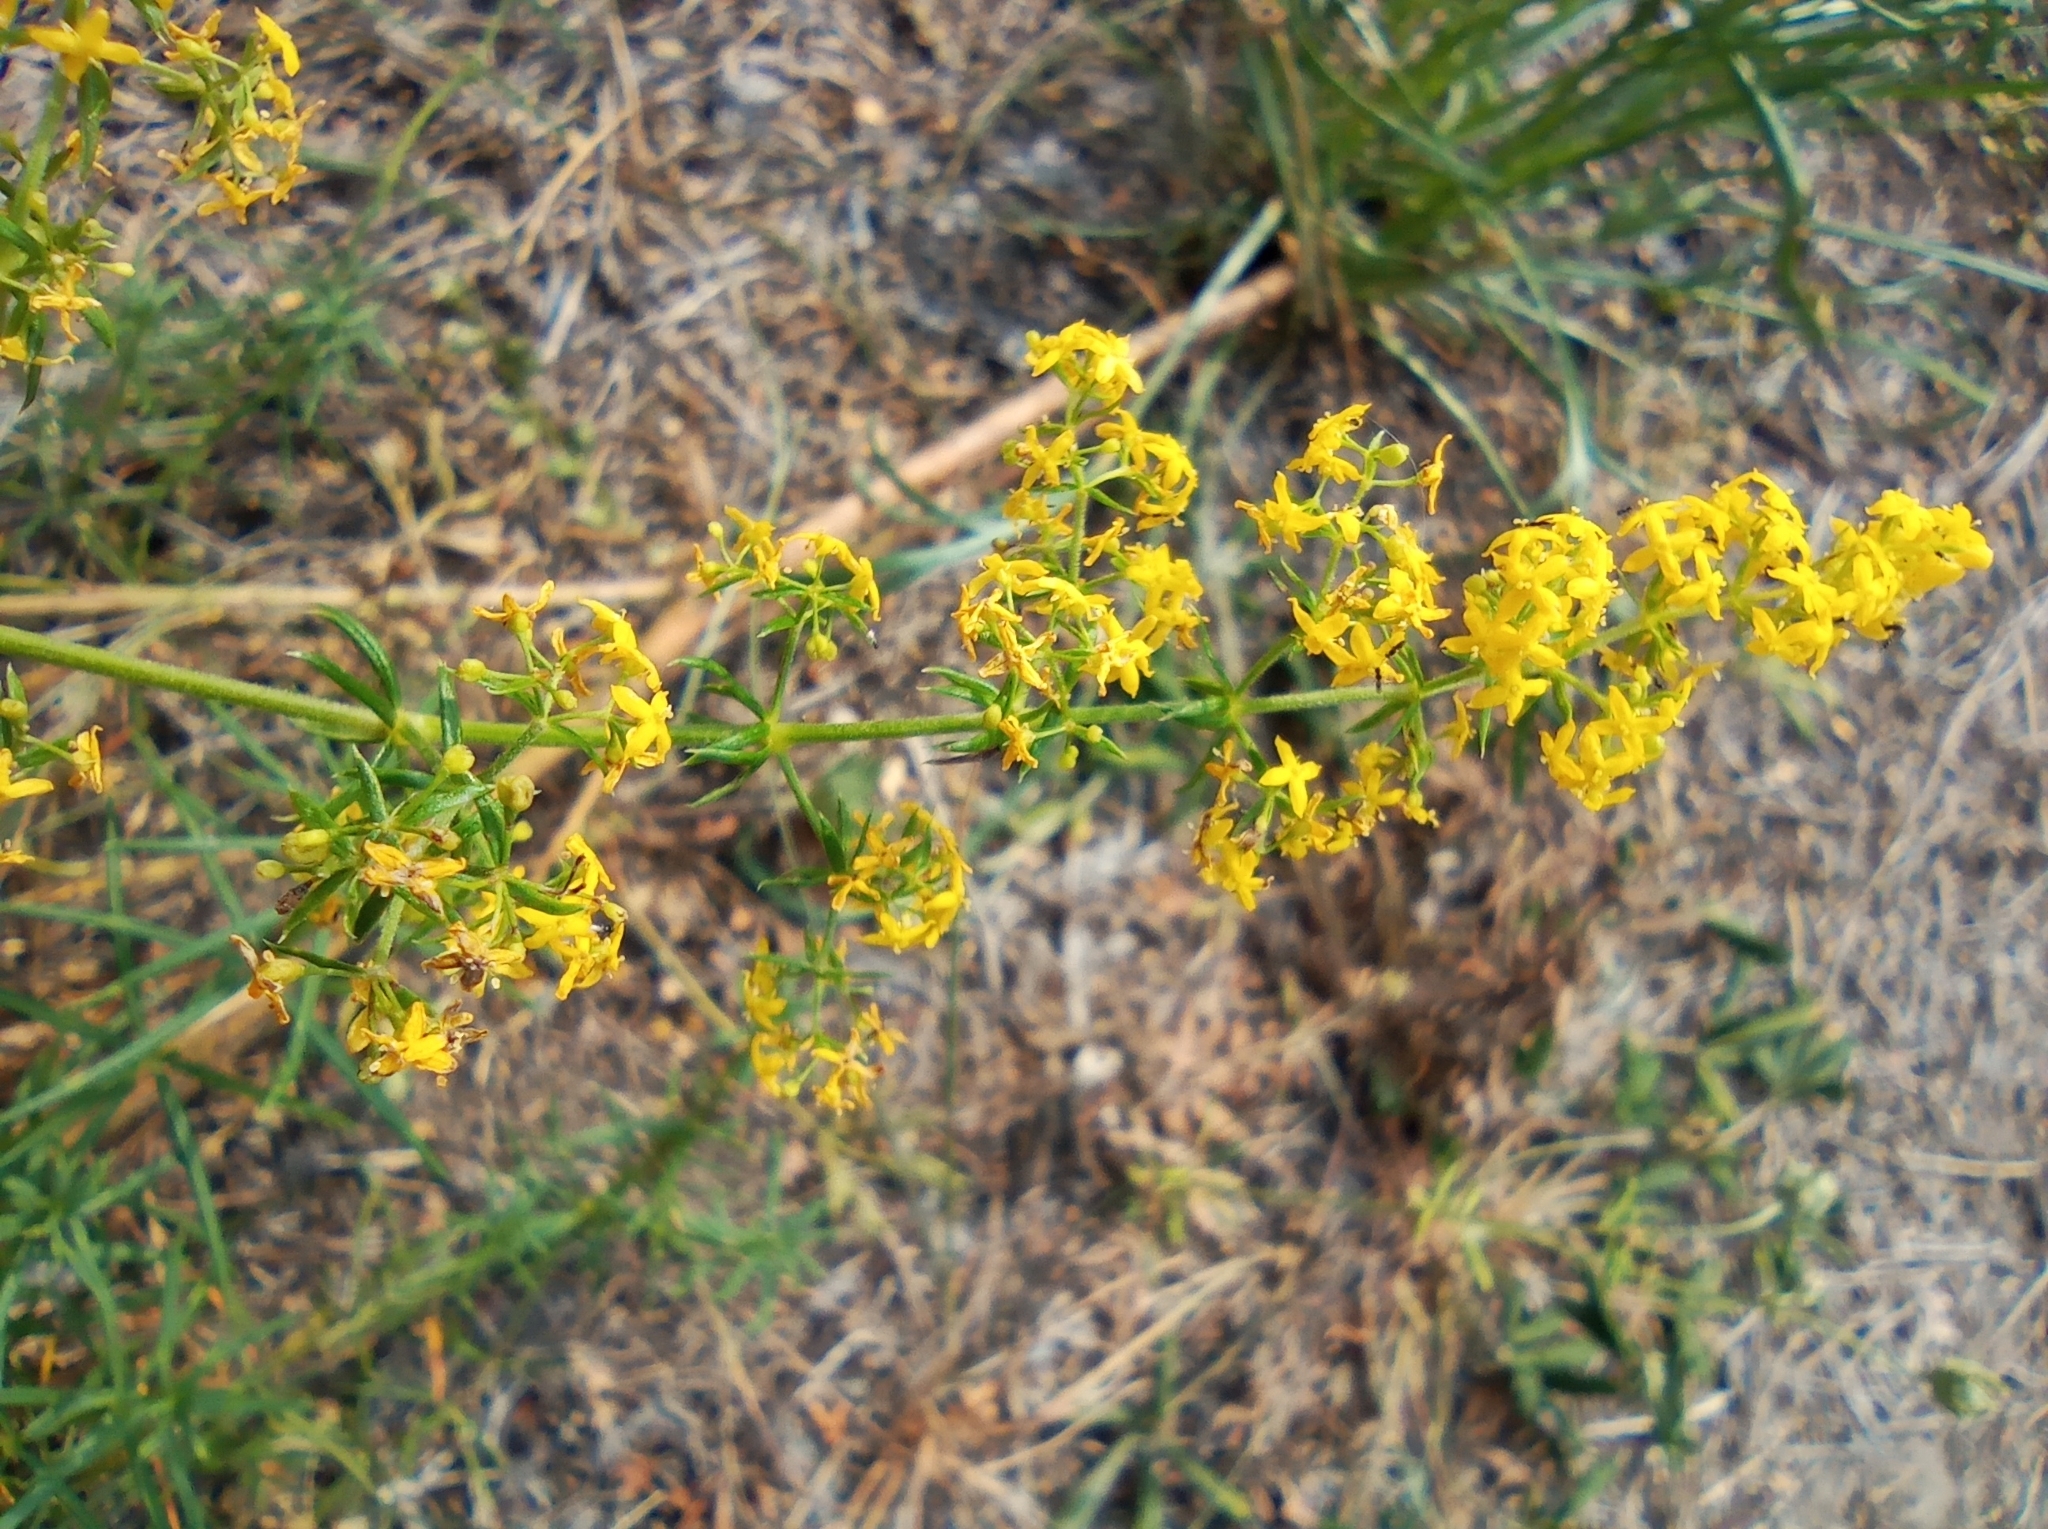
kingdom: Plantae
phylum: Tracheophyta
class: Magnoliopsida
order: Gentianales
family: Rubiaceae
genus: Galium
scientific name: Galium verum
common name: Lady's bedstraw
